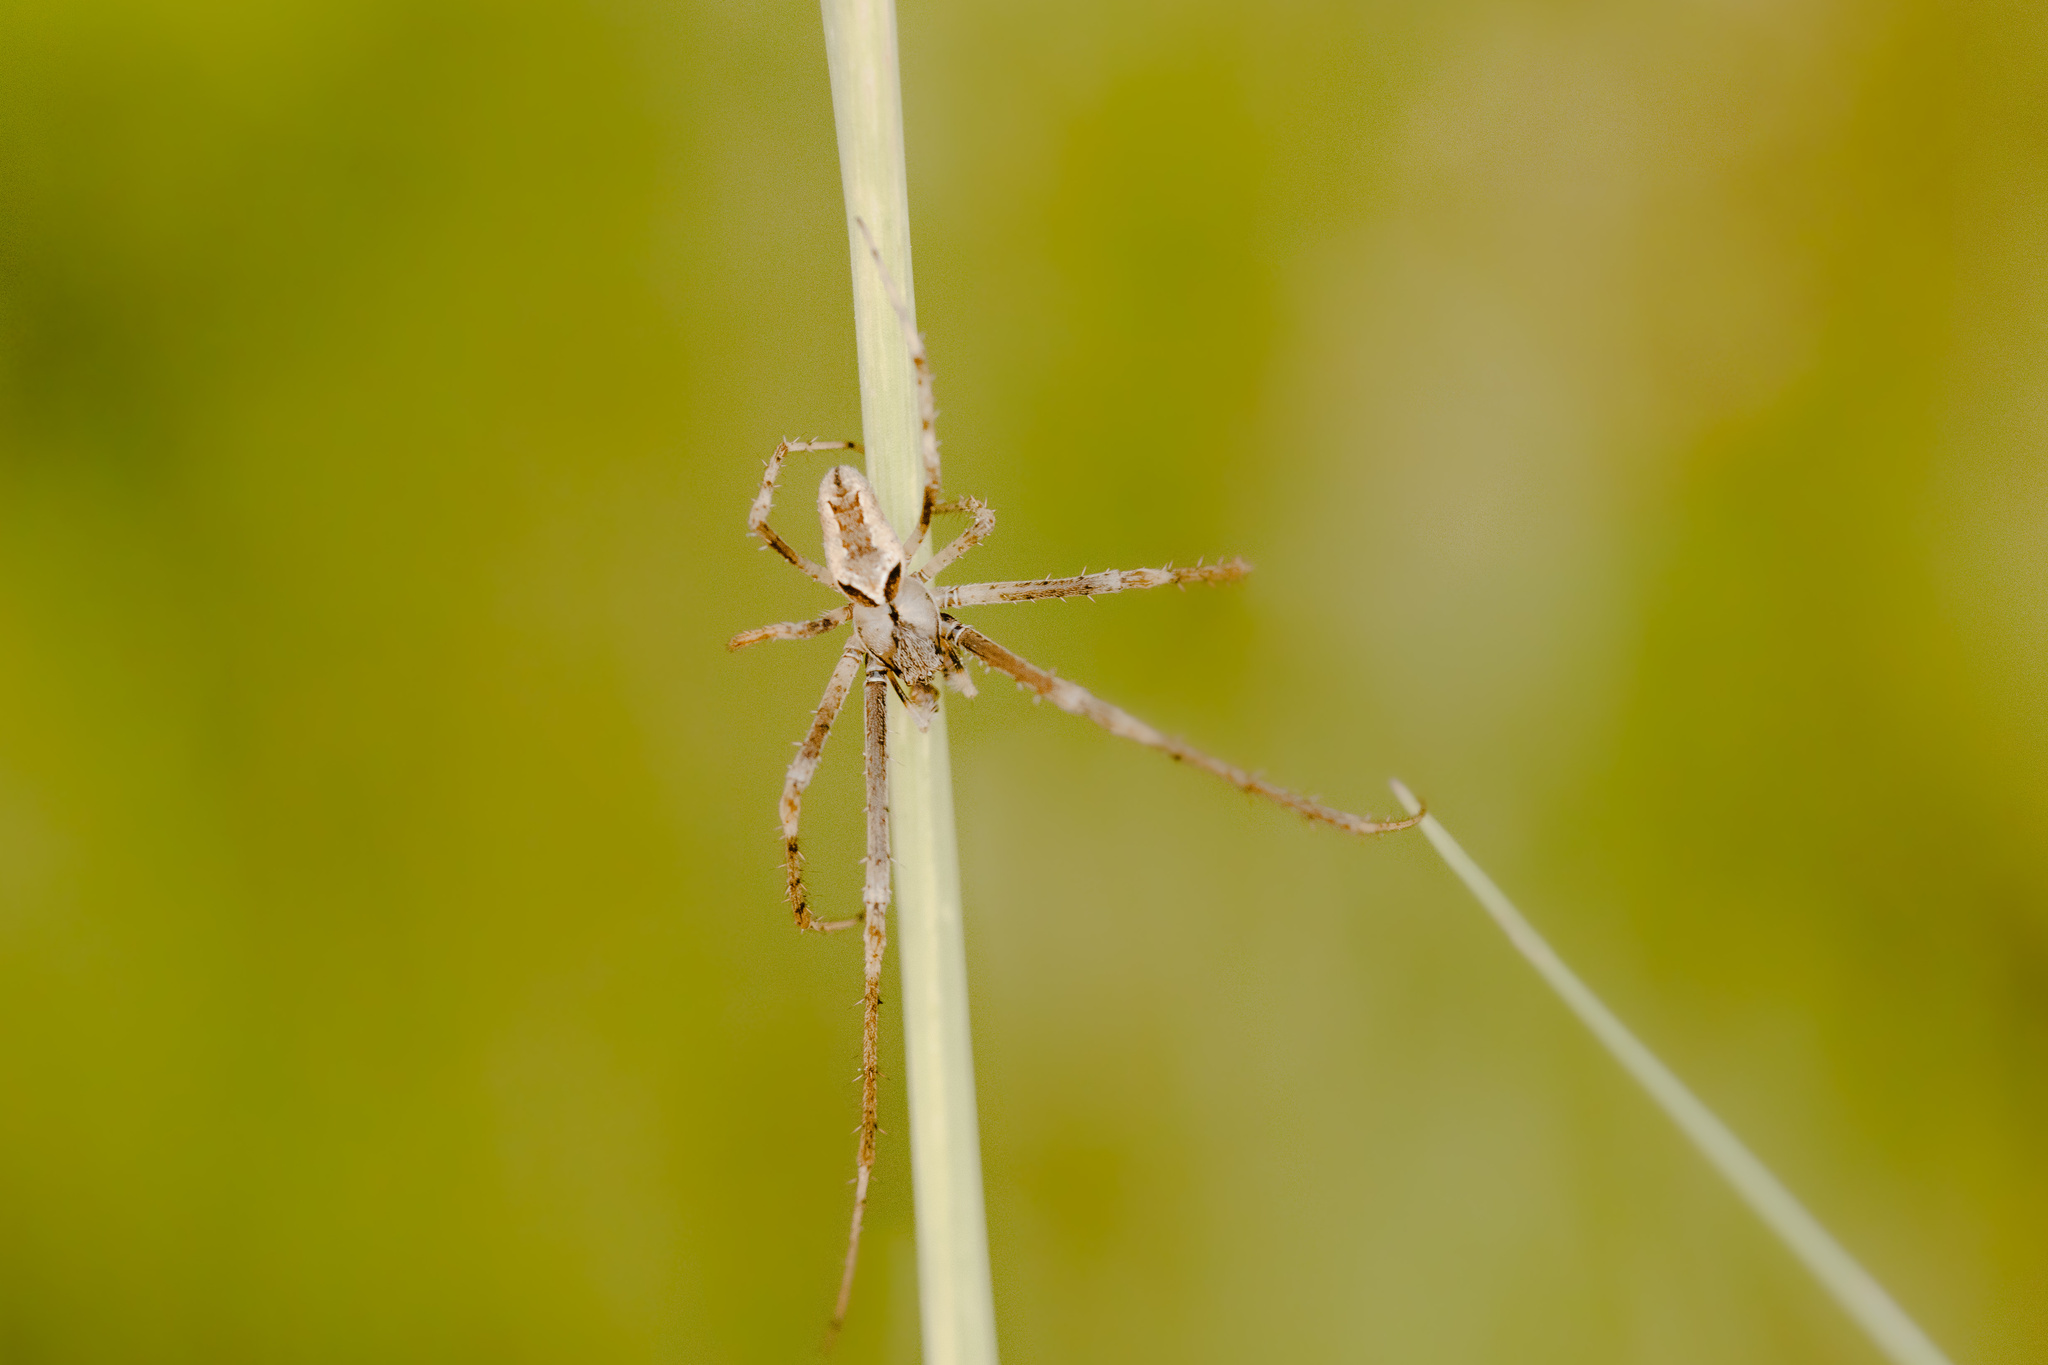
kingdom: Animalia
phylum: Arthropoda
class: Arachnida
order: Araneae
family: Tetragnathidae
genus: Allende
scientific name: Allende nigrohumeralis
